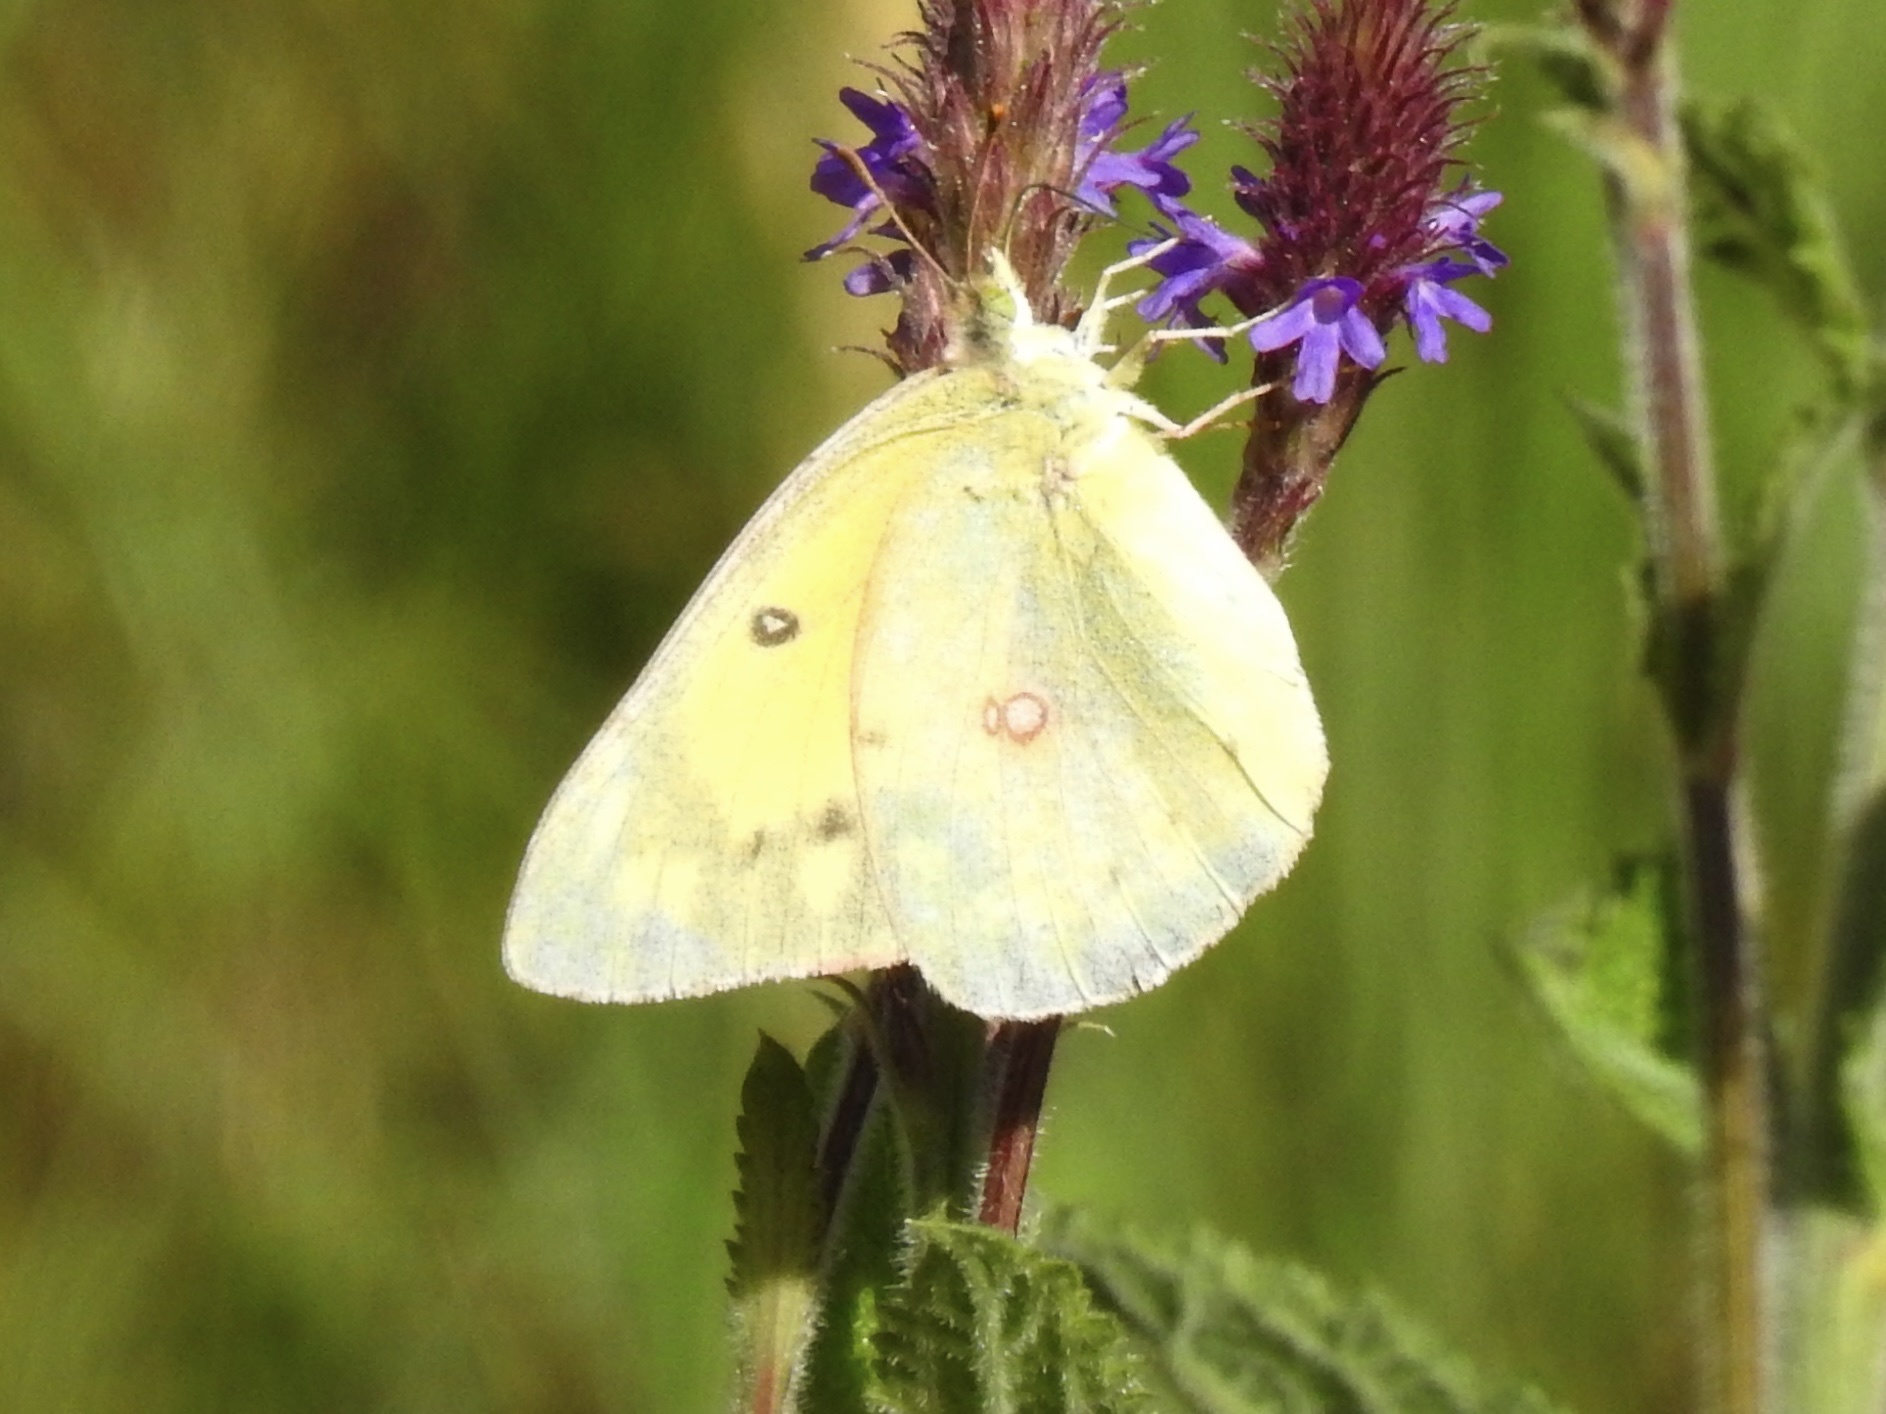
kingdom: Animalia
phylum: Arthropoda
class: Insecta
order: Lepidoptera
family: Pieridae
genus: Colias
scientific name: Colias eurytheme
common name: Alfalfa butterfly
